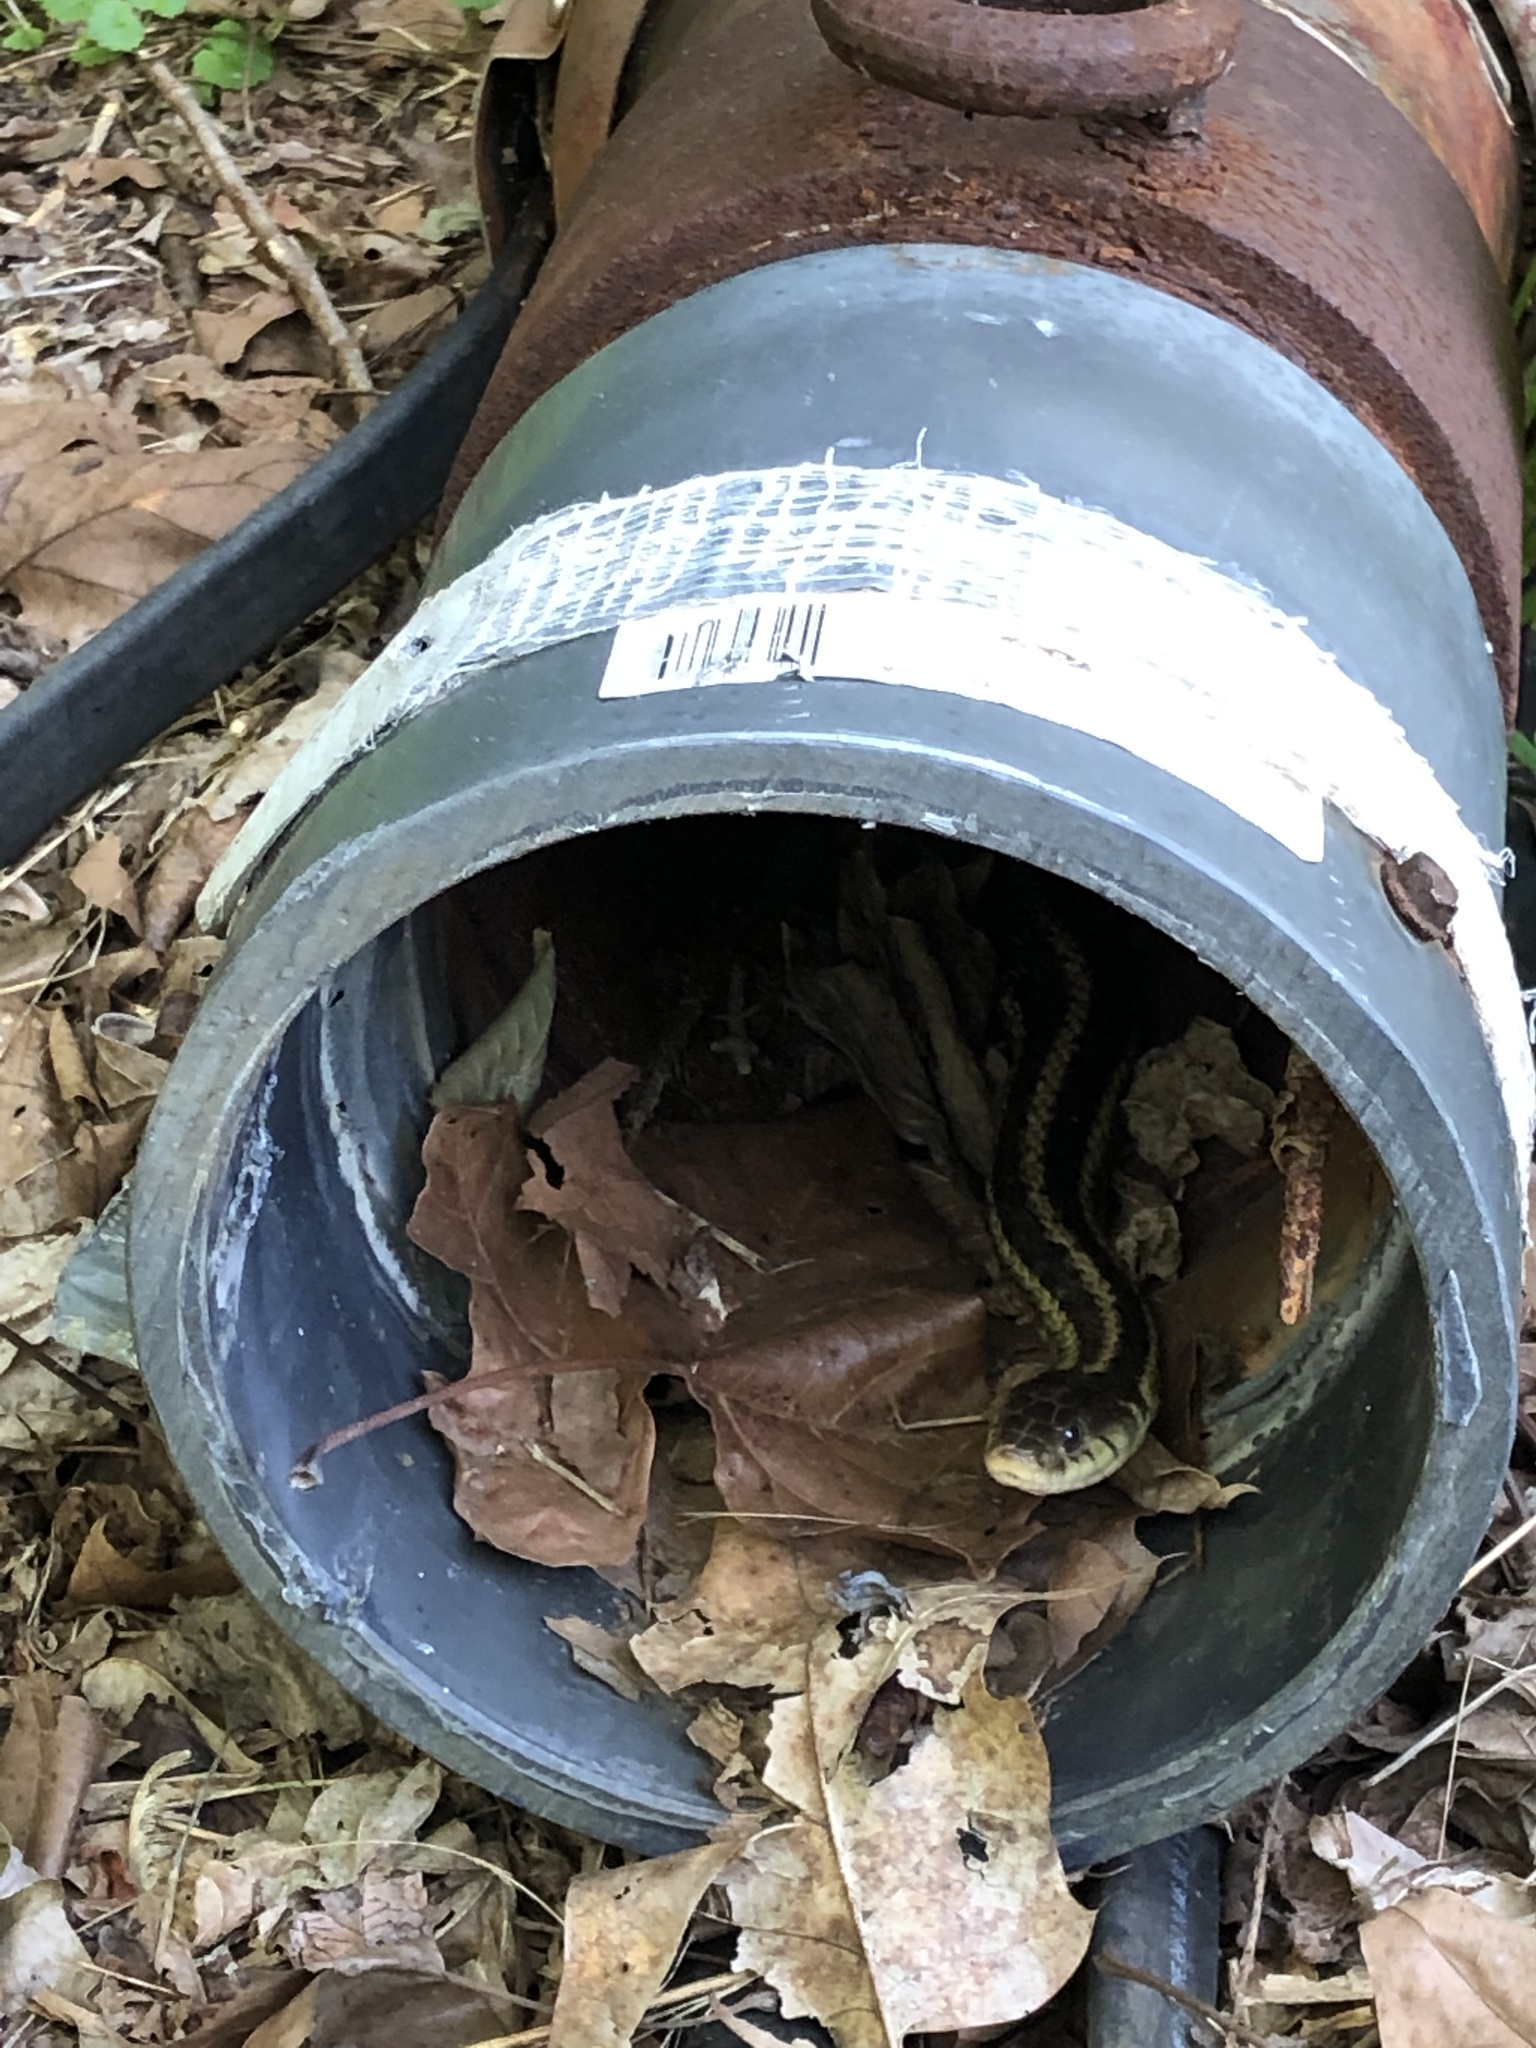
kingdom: Animalia
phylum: Chordata
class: Squamata
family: Colubridae
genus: Thamnophis
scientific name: Thamnophis sirtalis
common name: Common garter snake
